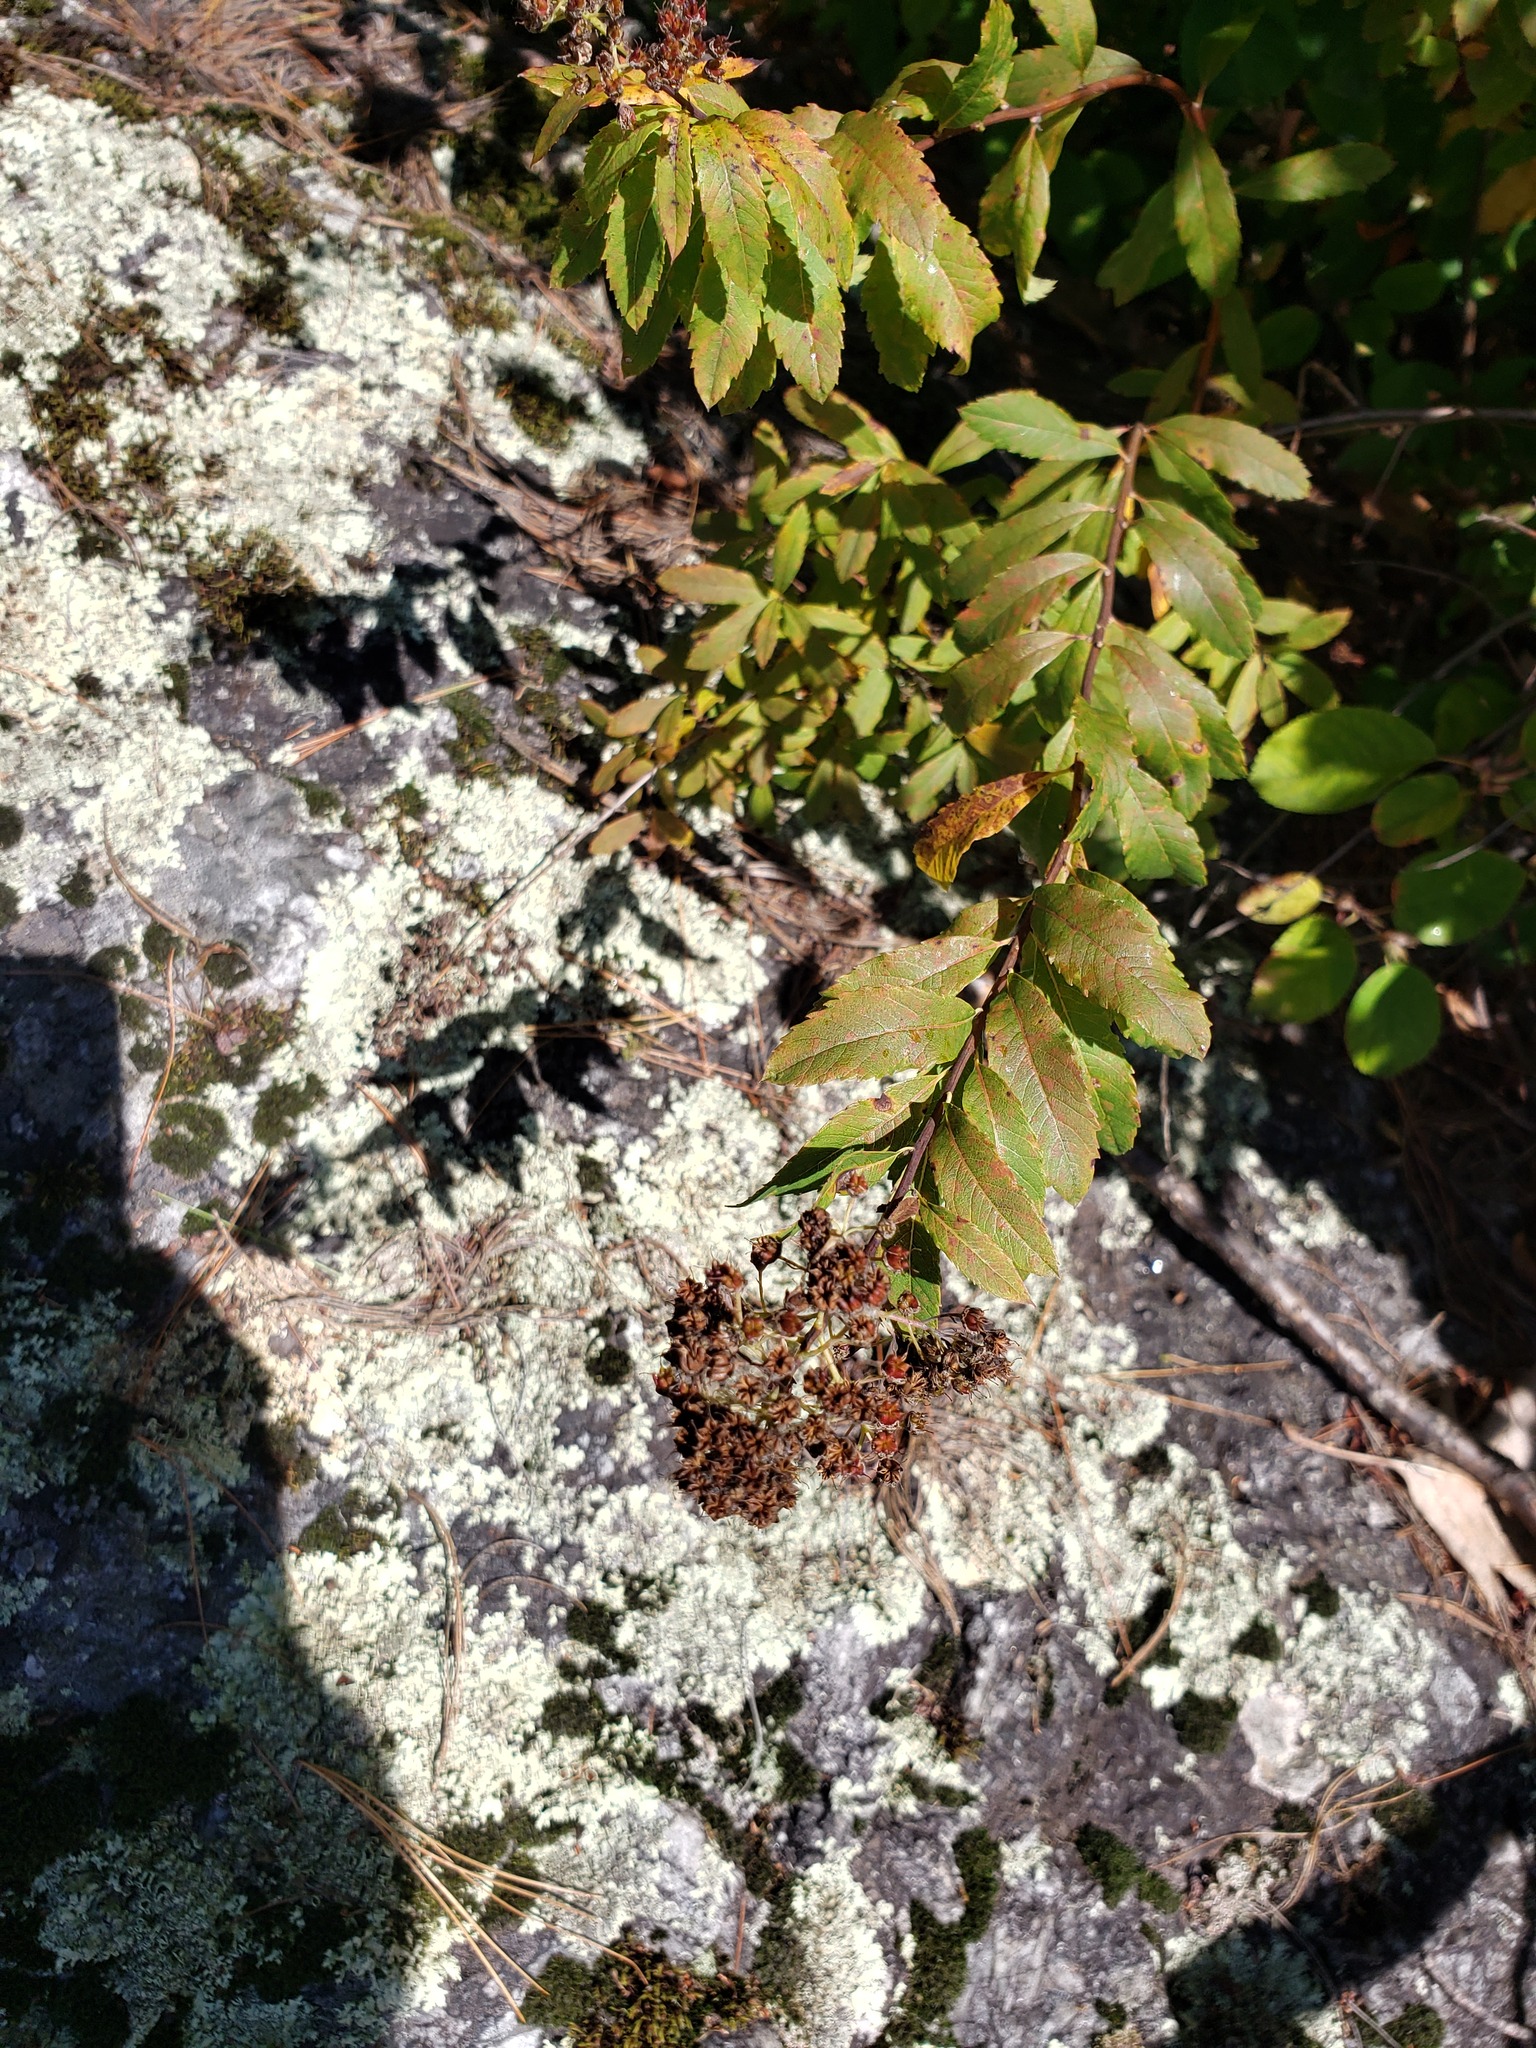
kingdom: Plantae
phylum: Tracheophyta
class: Magnoliopsida
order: Rosales
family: Rosaceae
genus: Spiraea
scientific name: Spiraea alba
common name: Pale bridewort
